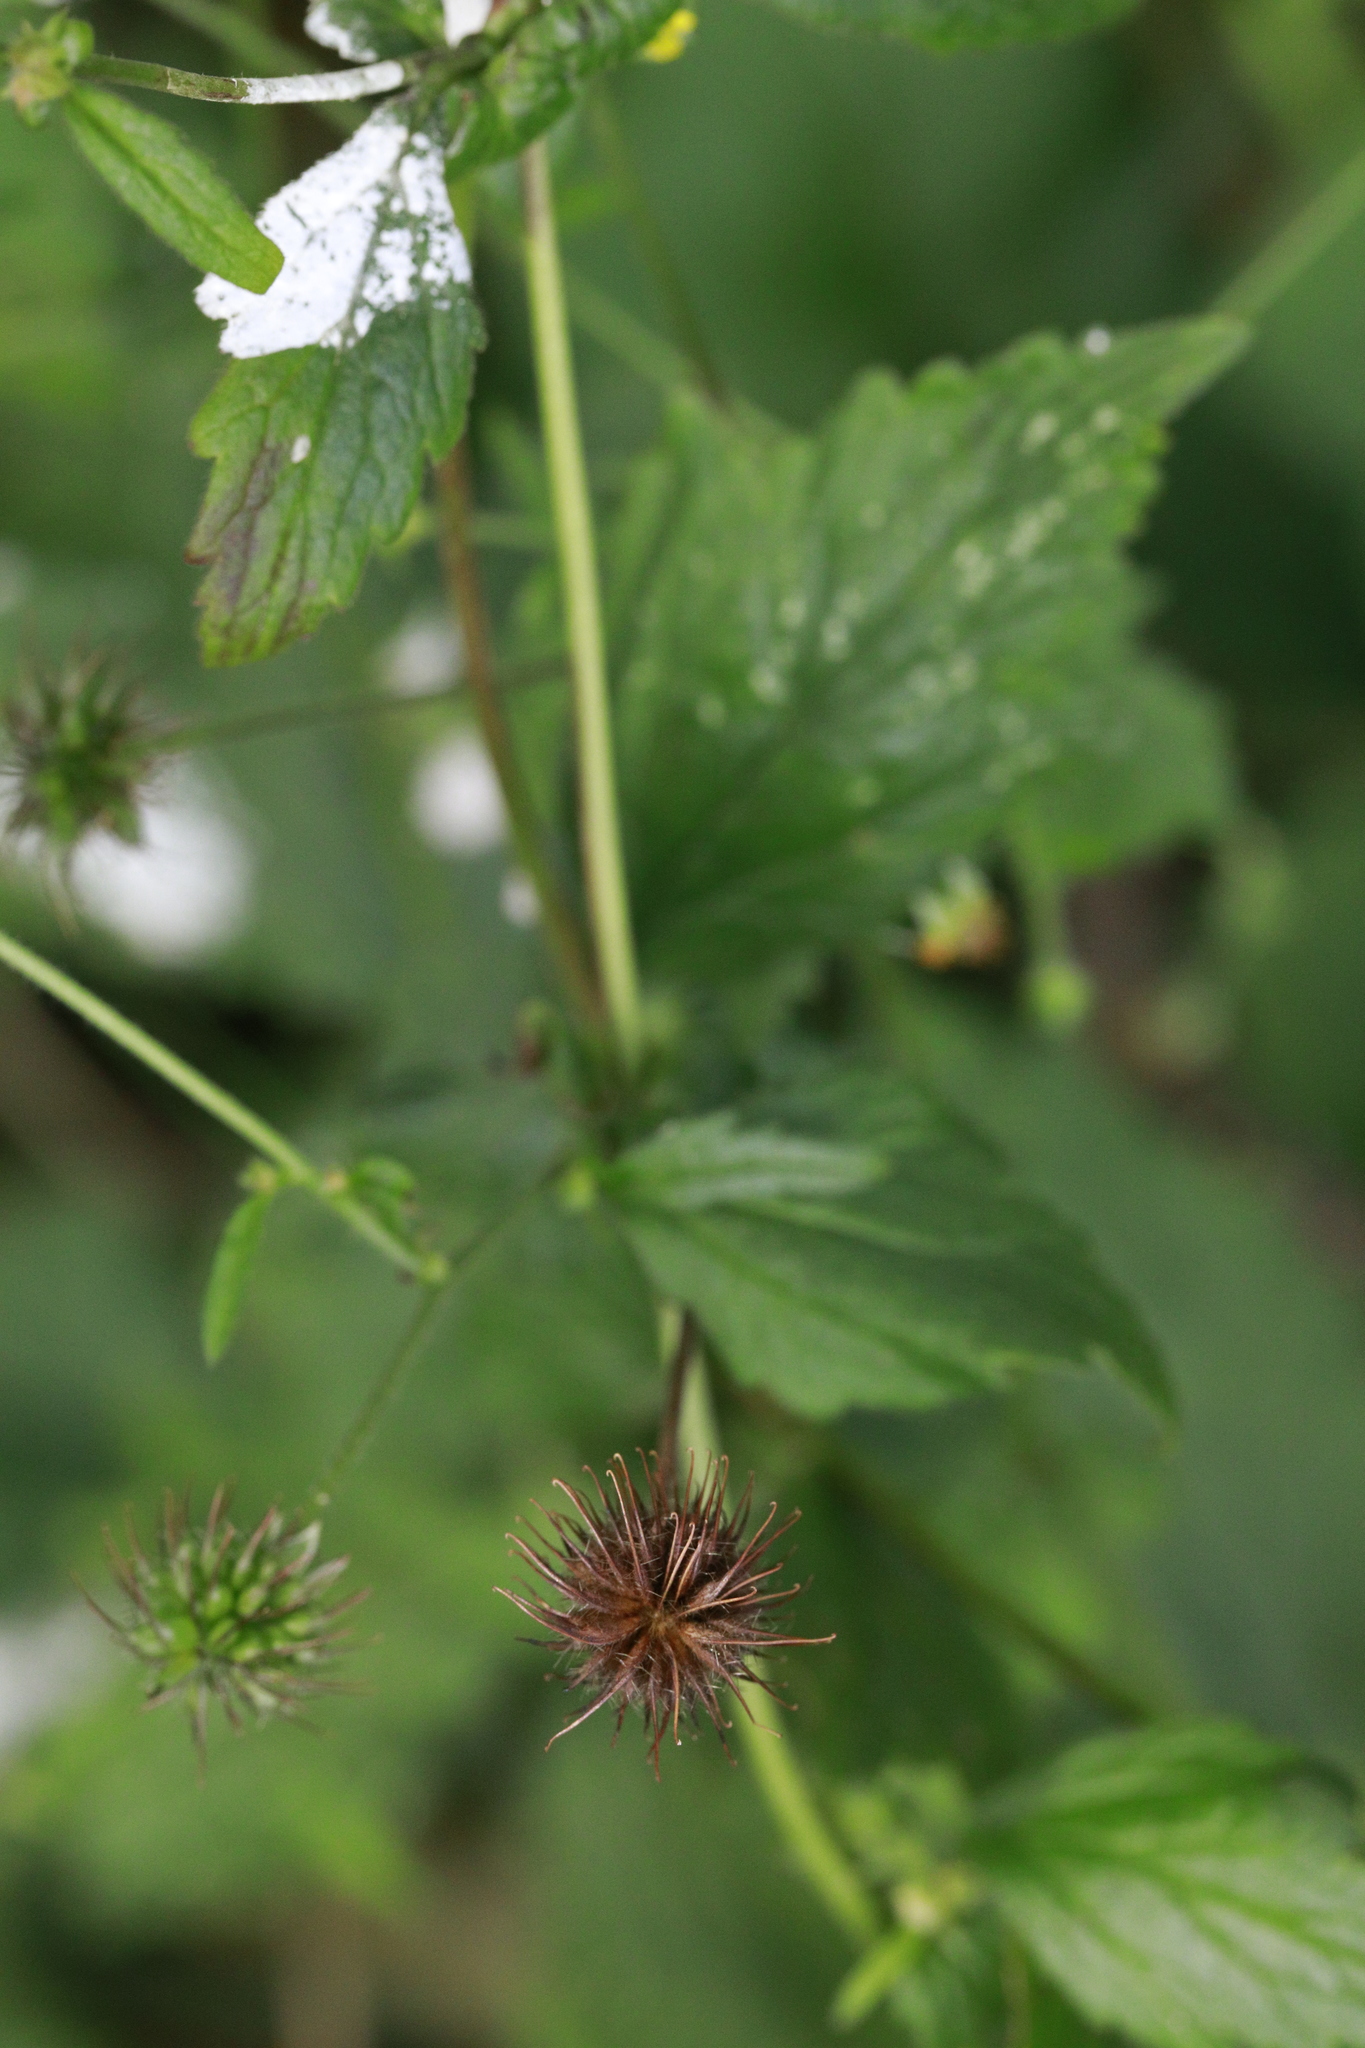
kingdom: Plantae
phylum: Tracheophyta
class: Magnoliopsida
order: Rosales
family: Rosaceae
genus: Geum
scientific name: Geum urbanum
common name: Wood avens
